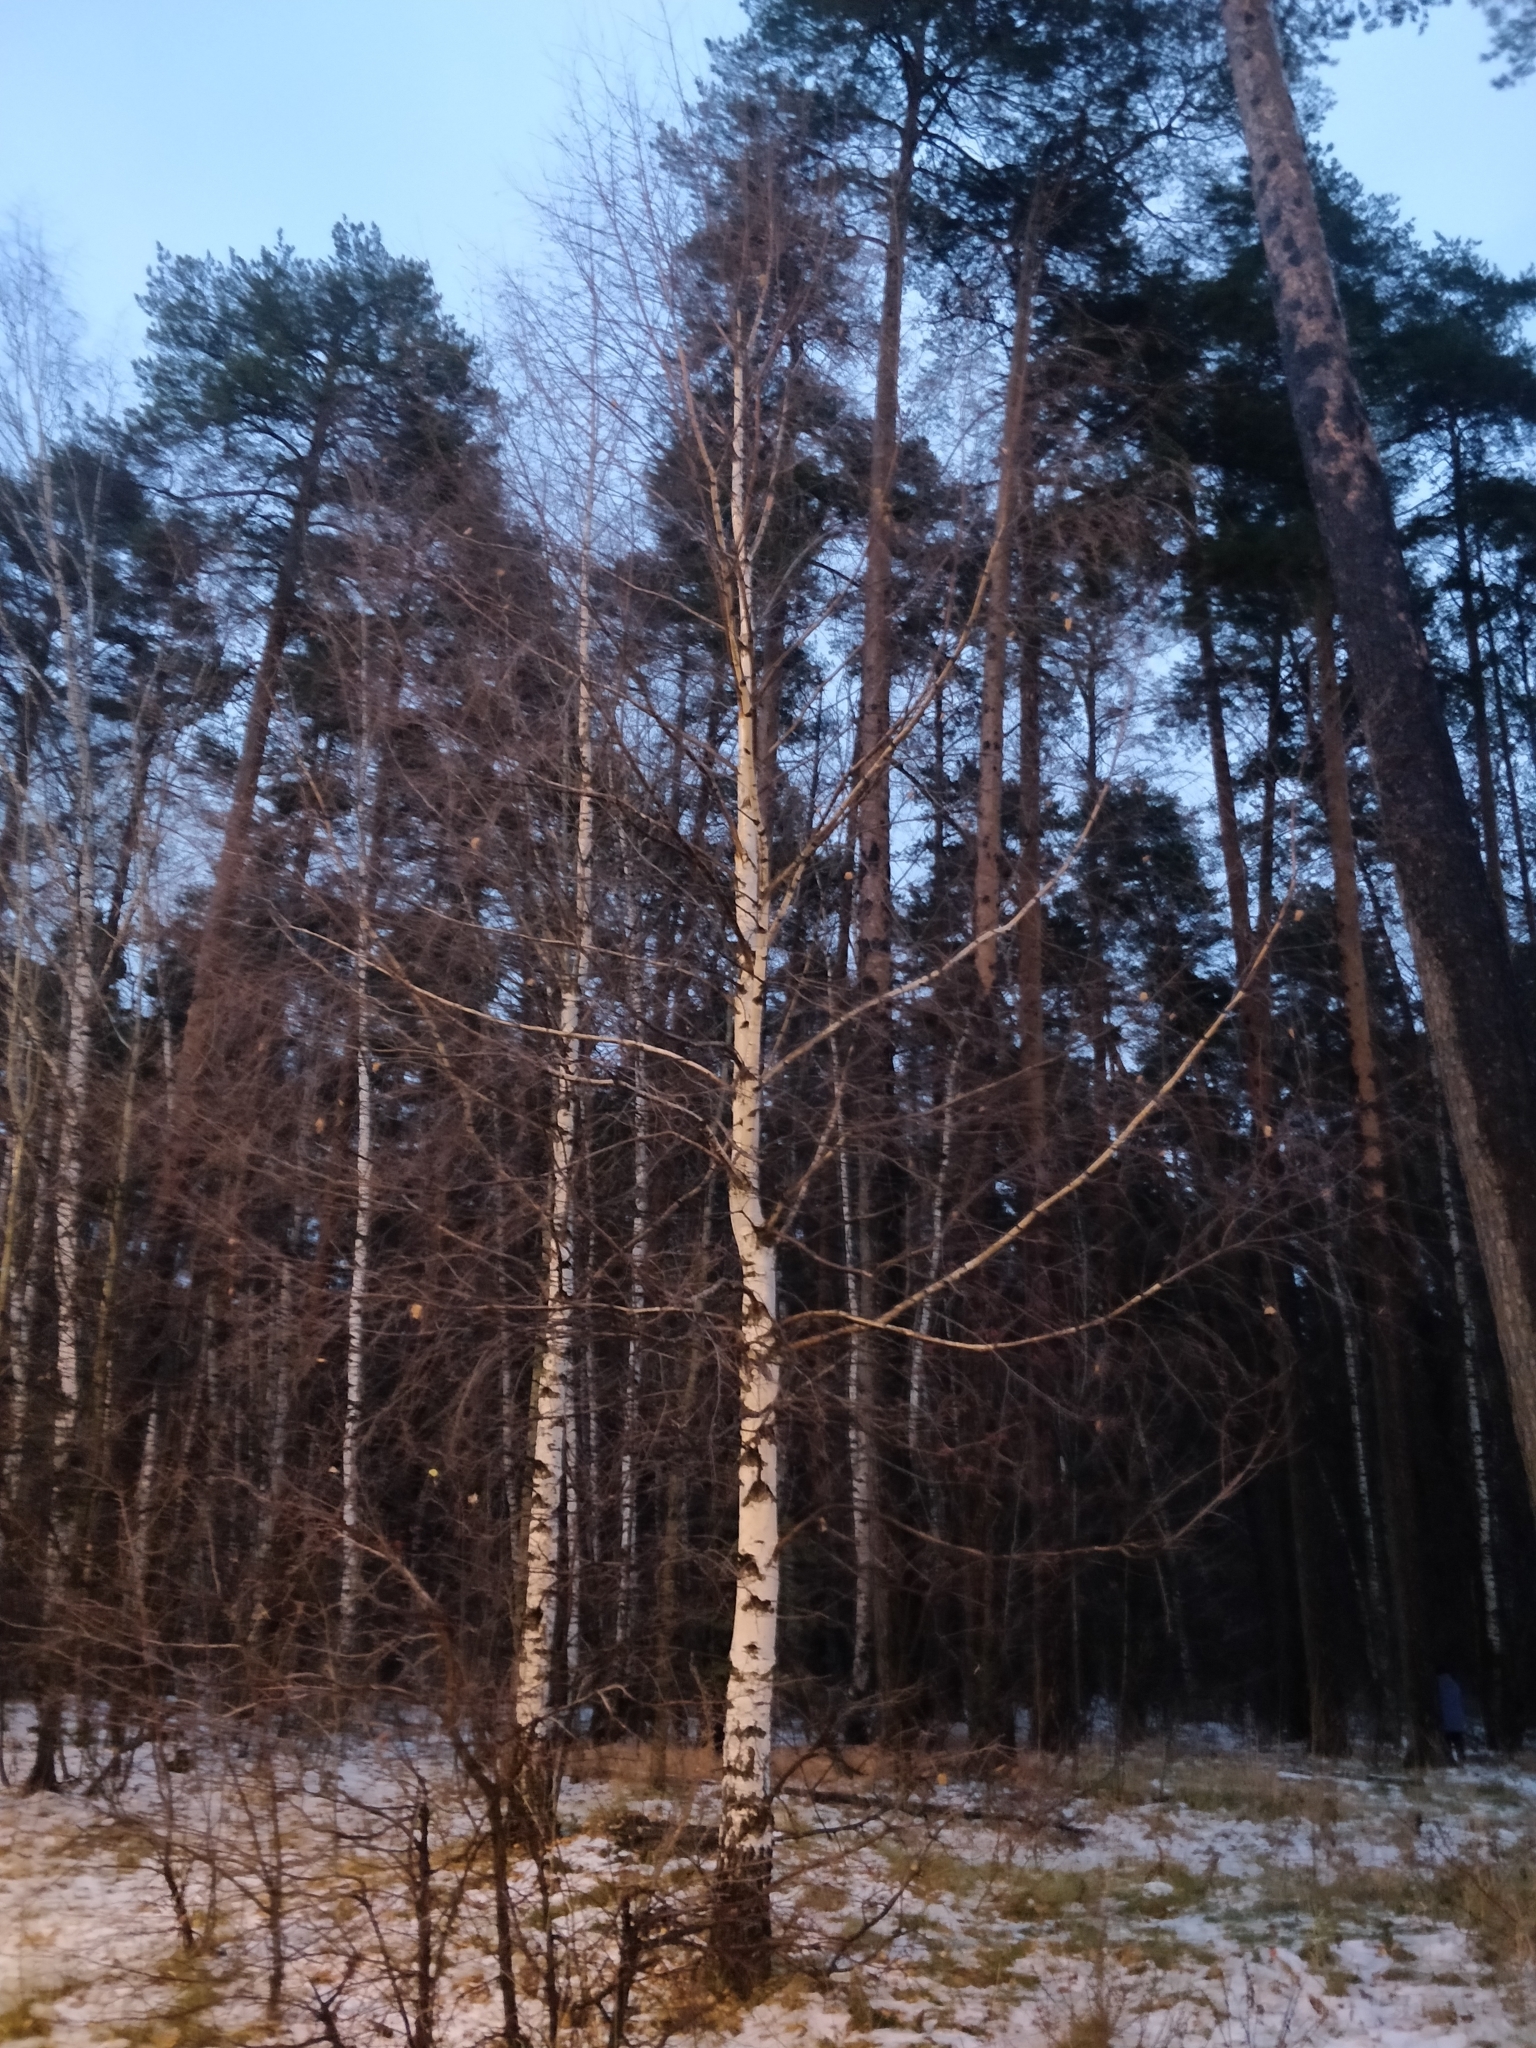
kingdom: Plantae
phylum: Tracheophyta
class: Magnoliopsida
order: Fagales
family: Betulaceae
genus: Betula
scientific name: Betula
